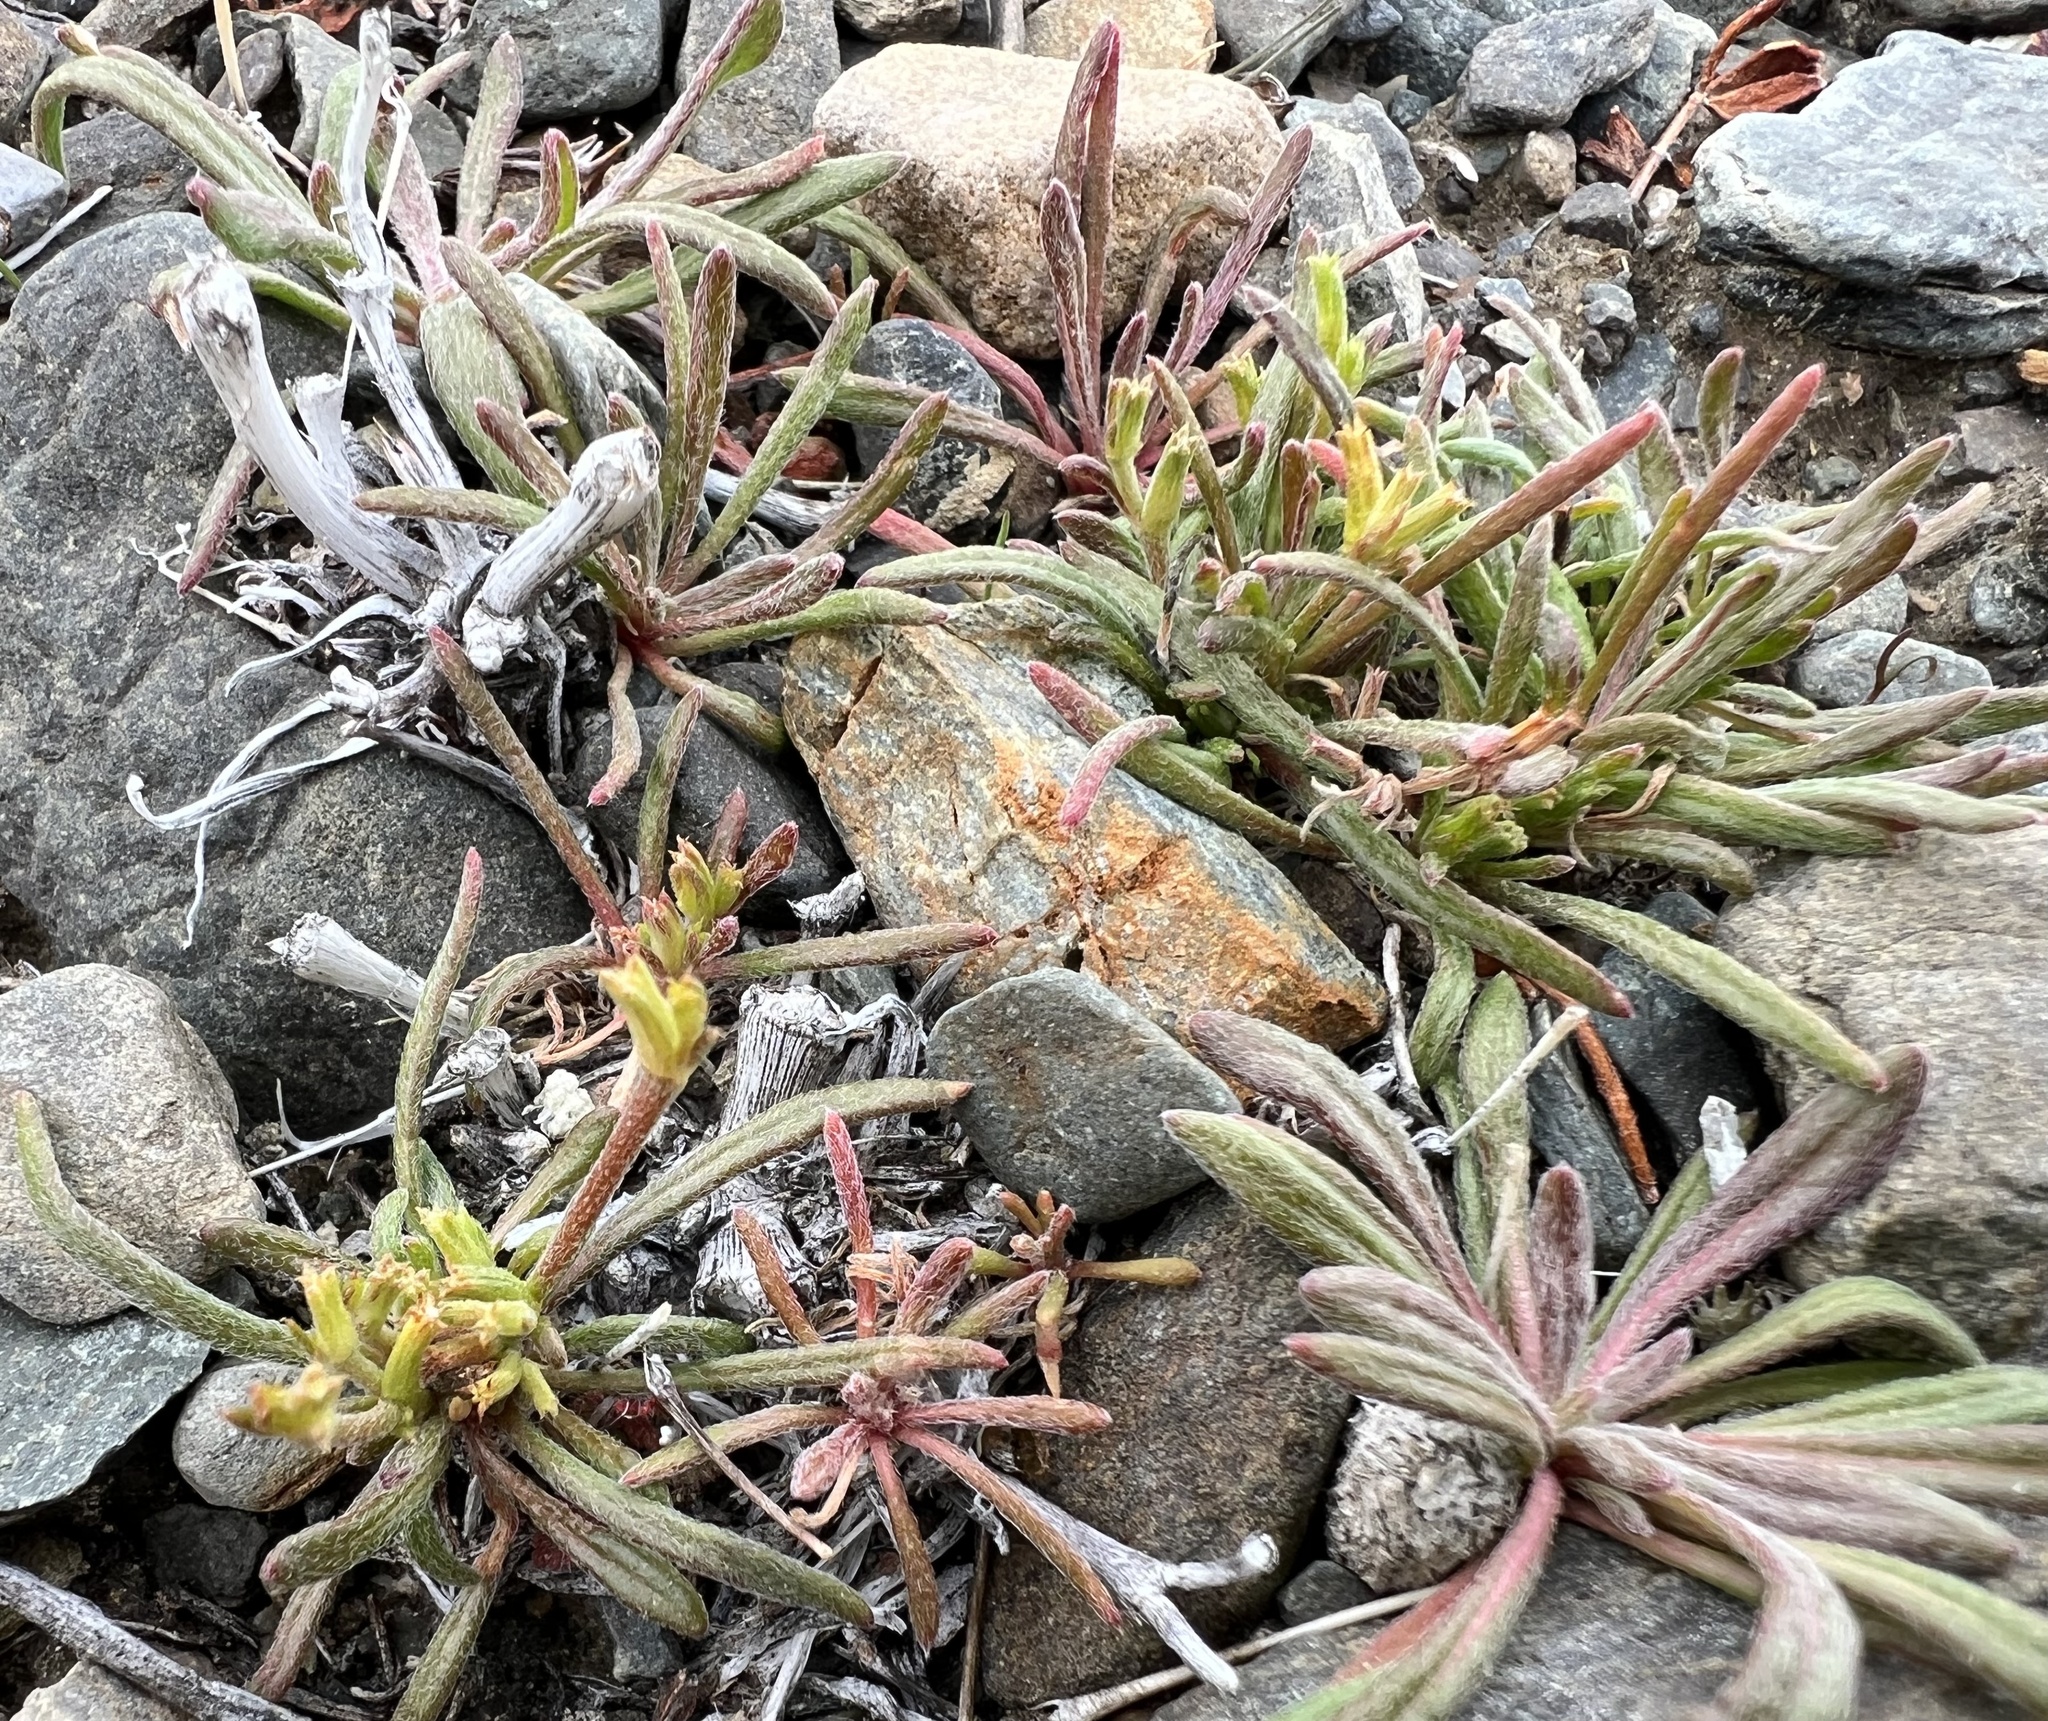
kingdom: Plantae
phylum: Tracheophyta
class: Magnoliopsida
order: Caryophyllales
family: Polygonaceae
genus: Chorizanthe
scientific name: Chorizanthe brevicornu
